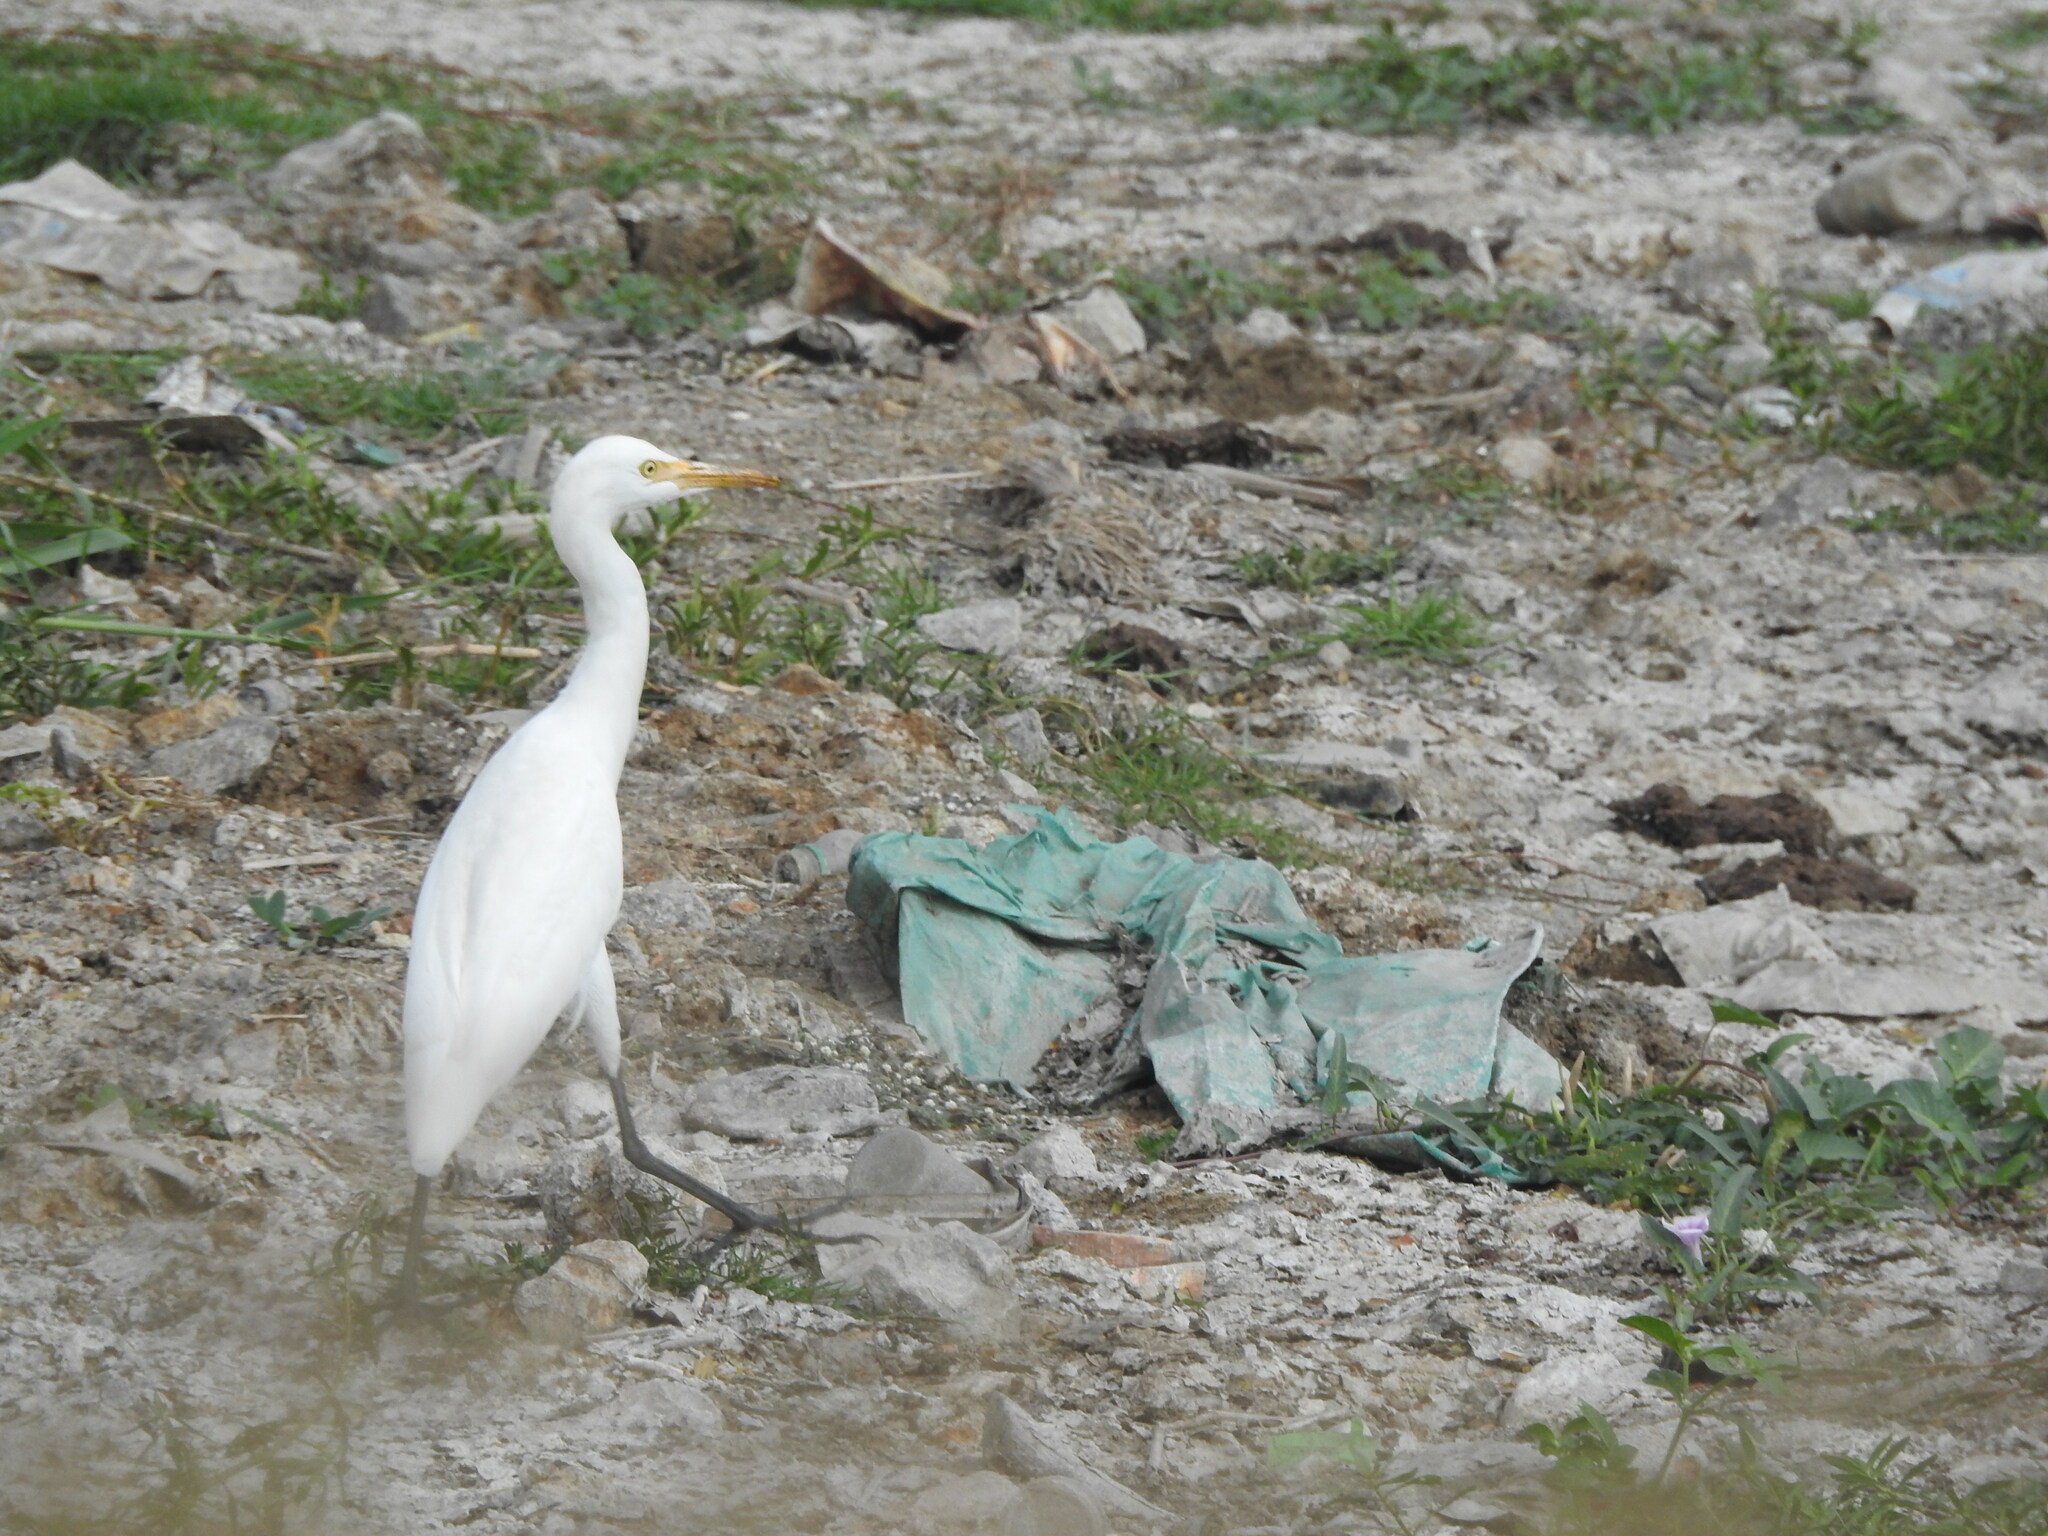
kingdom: Animalia
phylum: Chordata
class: Aves
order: Pelecaniformes
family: Ardeidae
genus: Bubulcus
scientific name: Bubulcus coromandus
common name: Eastern cattle egret
